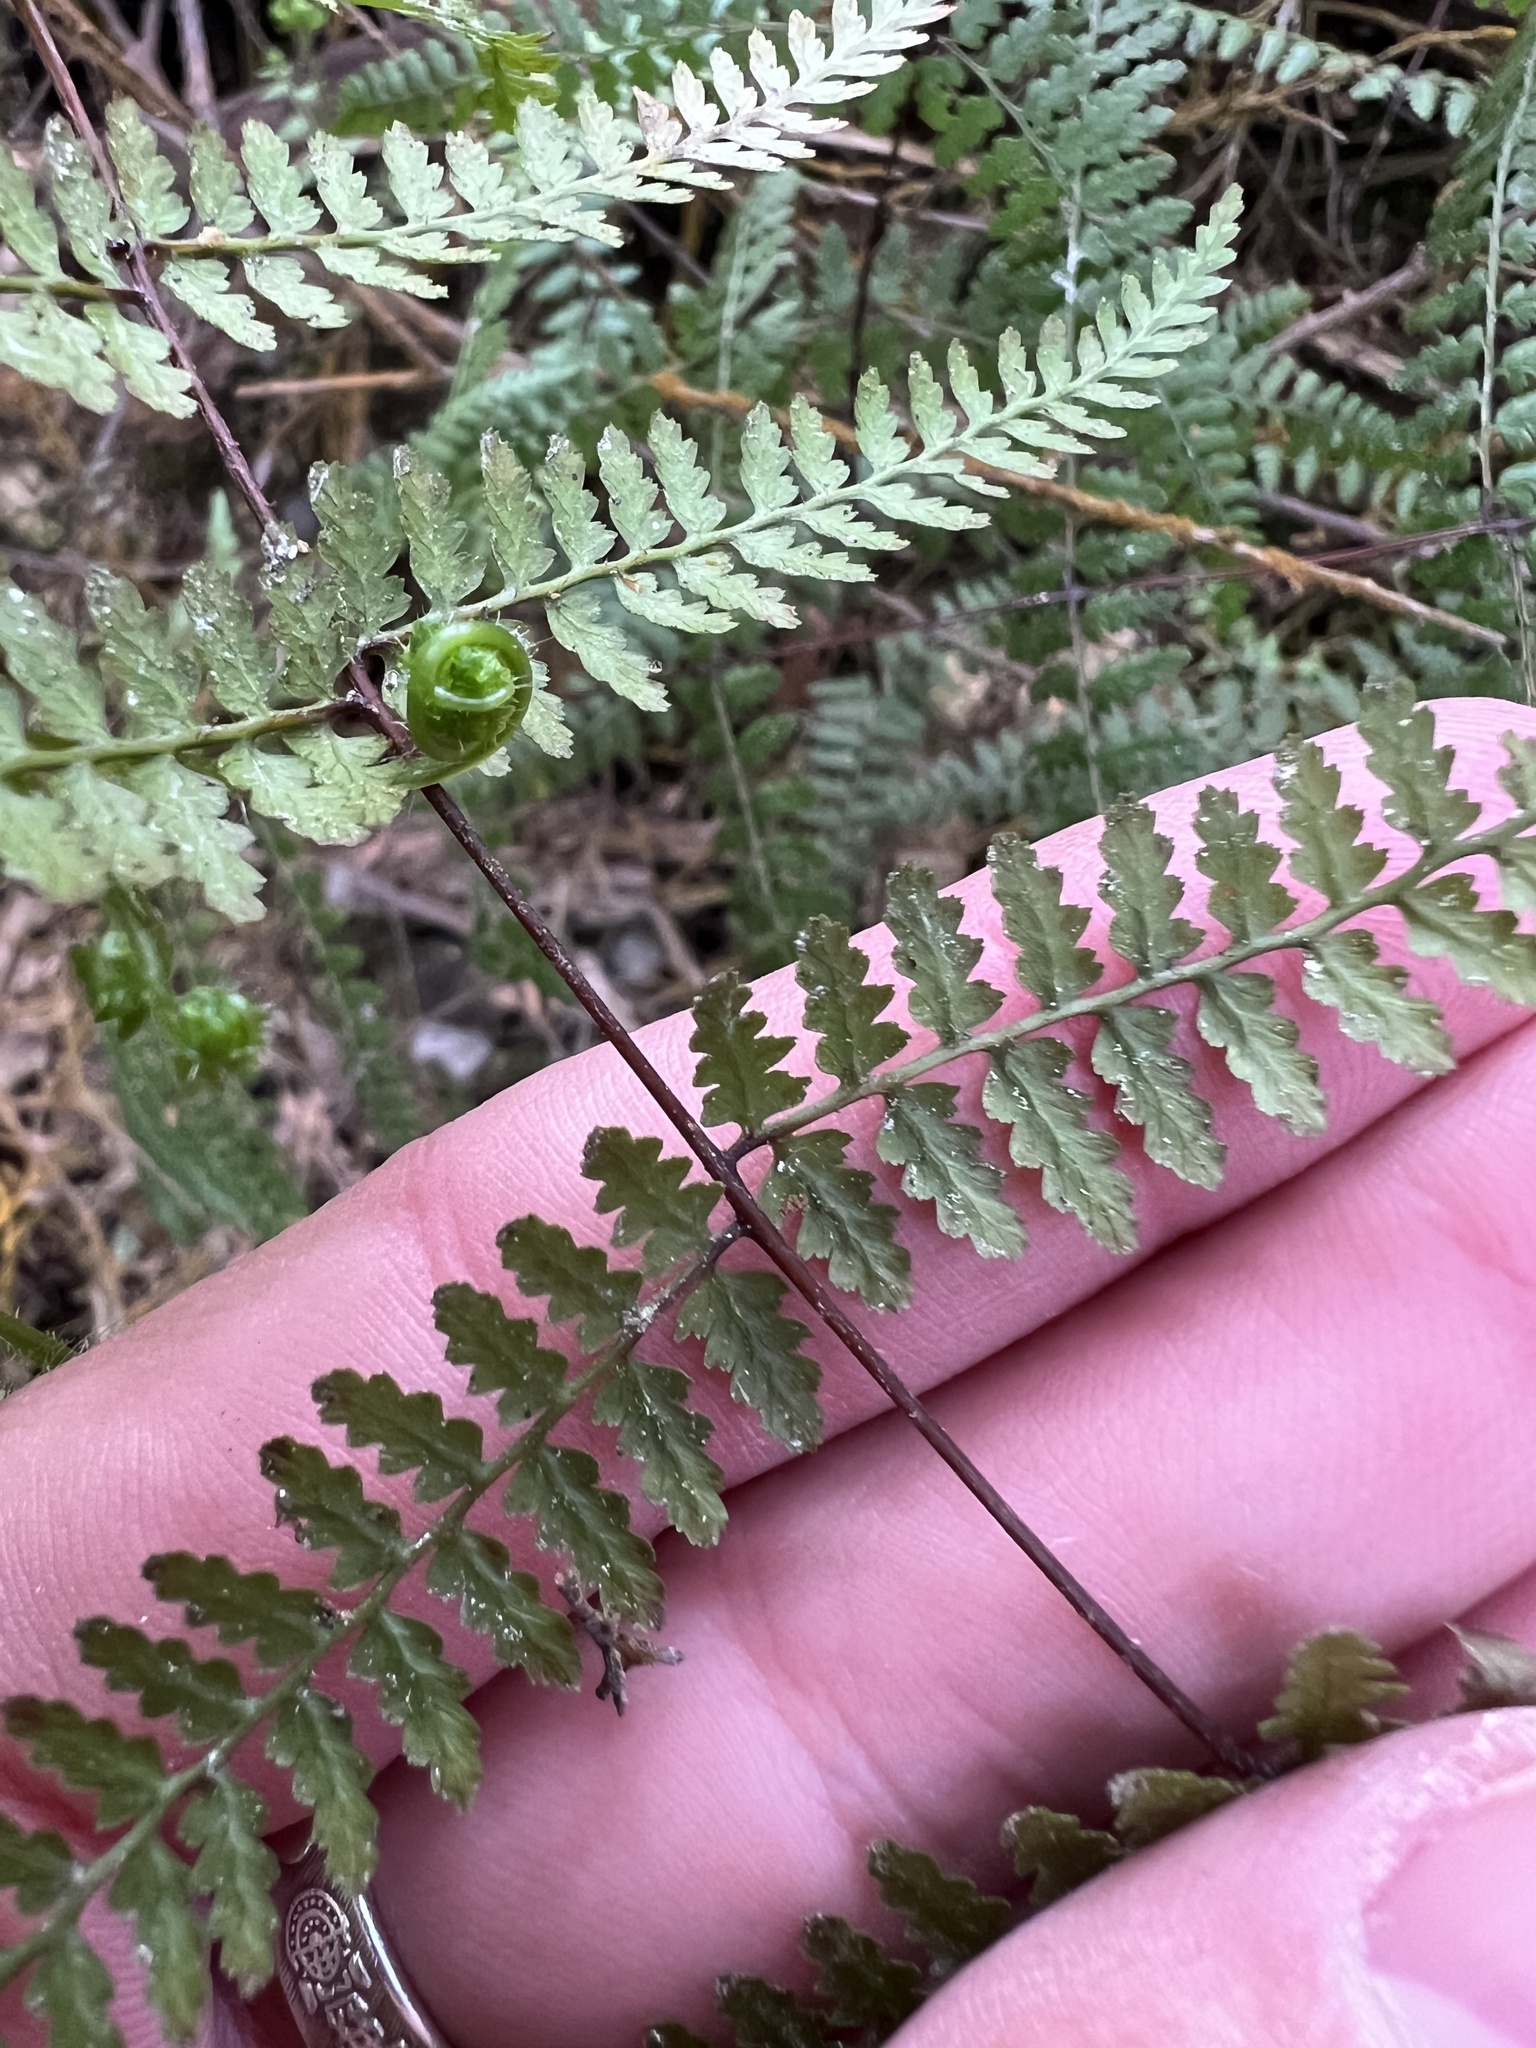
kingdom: Plantae
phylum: Tracheophyta
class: Polypodiopsida
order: Polypodiales
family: Dennstaedtiaceae
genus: Hiya
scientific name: Hiya distans
